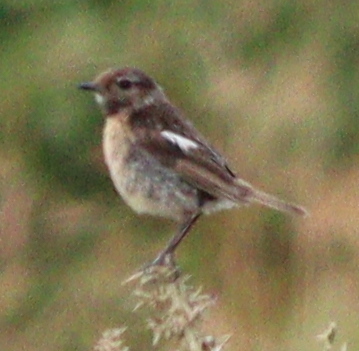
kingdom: Animalia
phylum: Chordata
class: Aves
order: Passeriformes
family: Muscicapidae
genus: Saxicola
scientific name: Saxicola rubicola
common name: European stonechat
